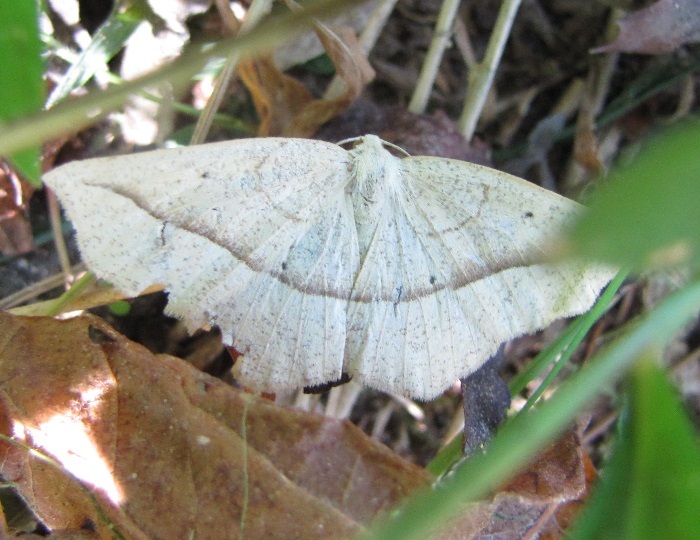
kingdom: Animalia
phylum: Arthropoda
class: Insecta
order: Lepidoptera
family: Geometridae
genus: Eusarca
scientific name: Eusarca confusaria
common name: Confused eusarca
